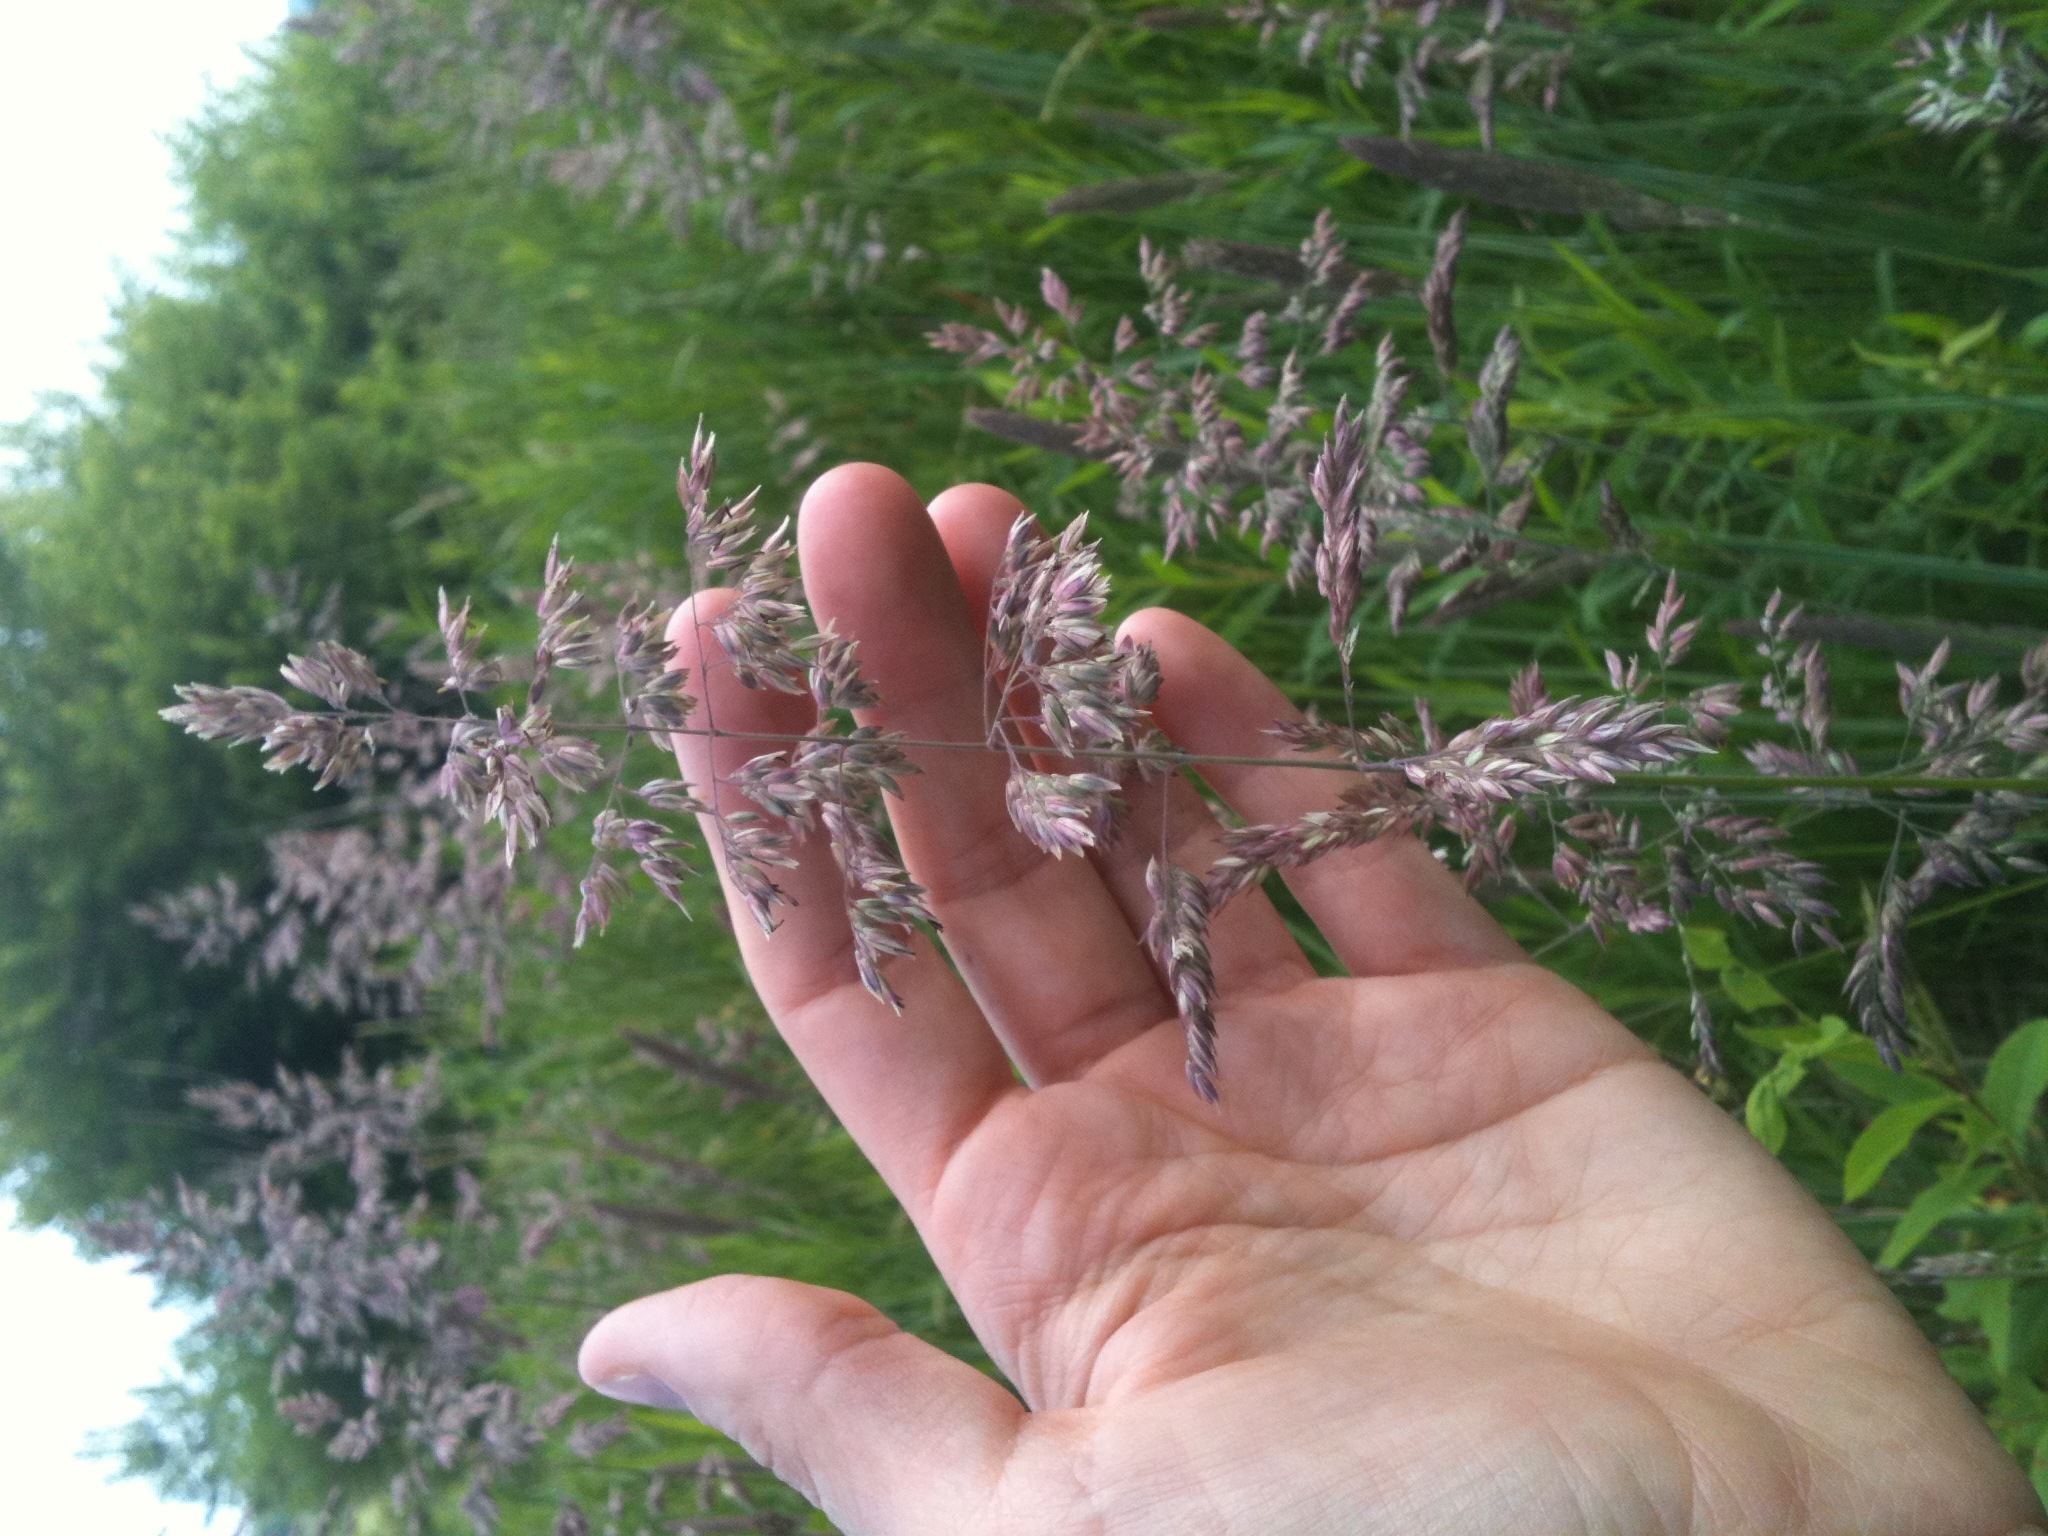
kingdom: Plantae
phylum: Tracheophyta
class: Liliopsida
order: Poales
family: Poaceae
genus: Holcus
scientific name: Holcus lanatus
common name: Yorkshire-fog
